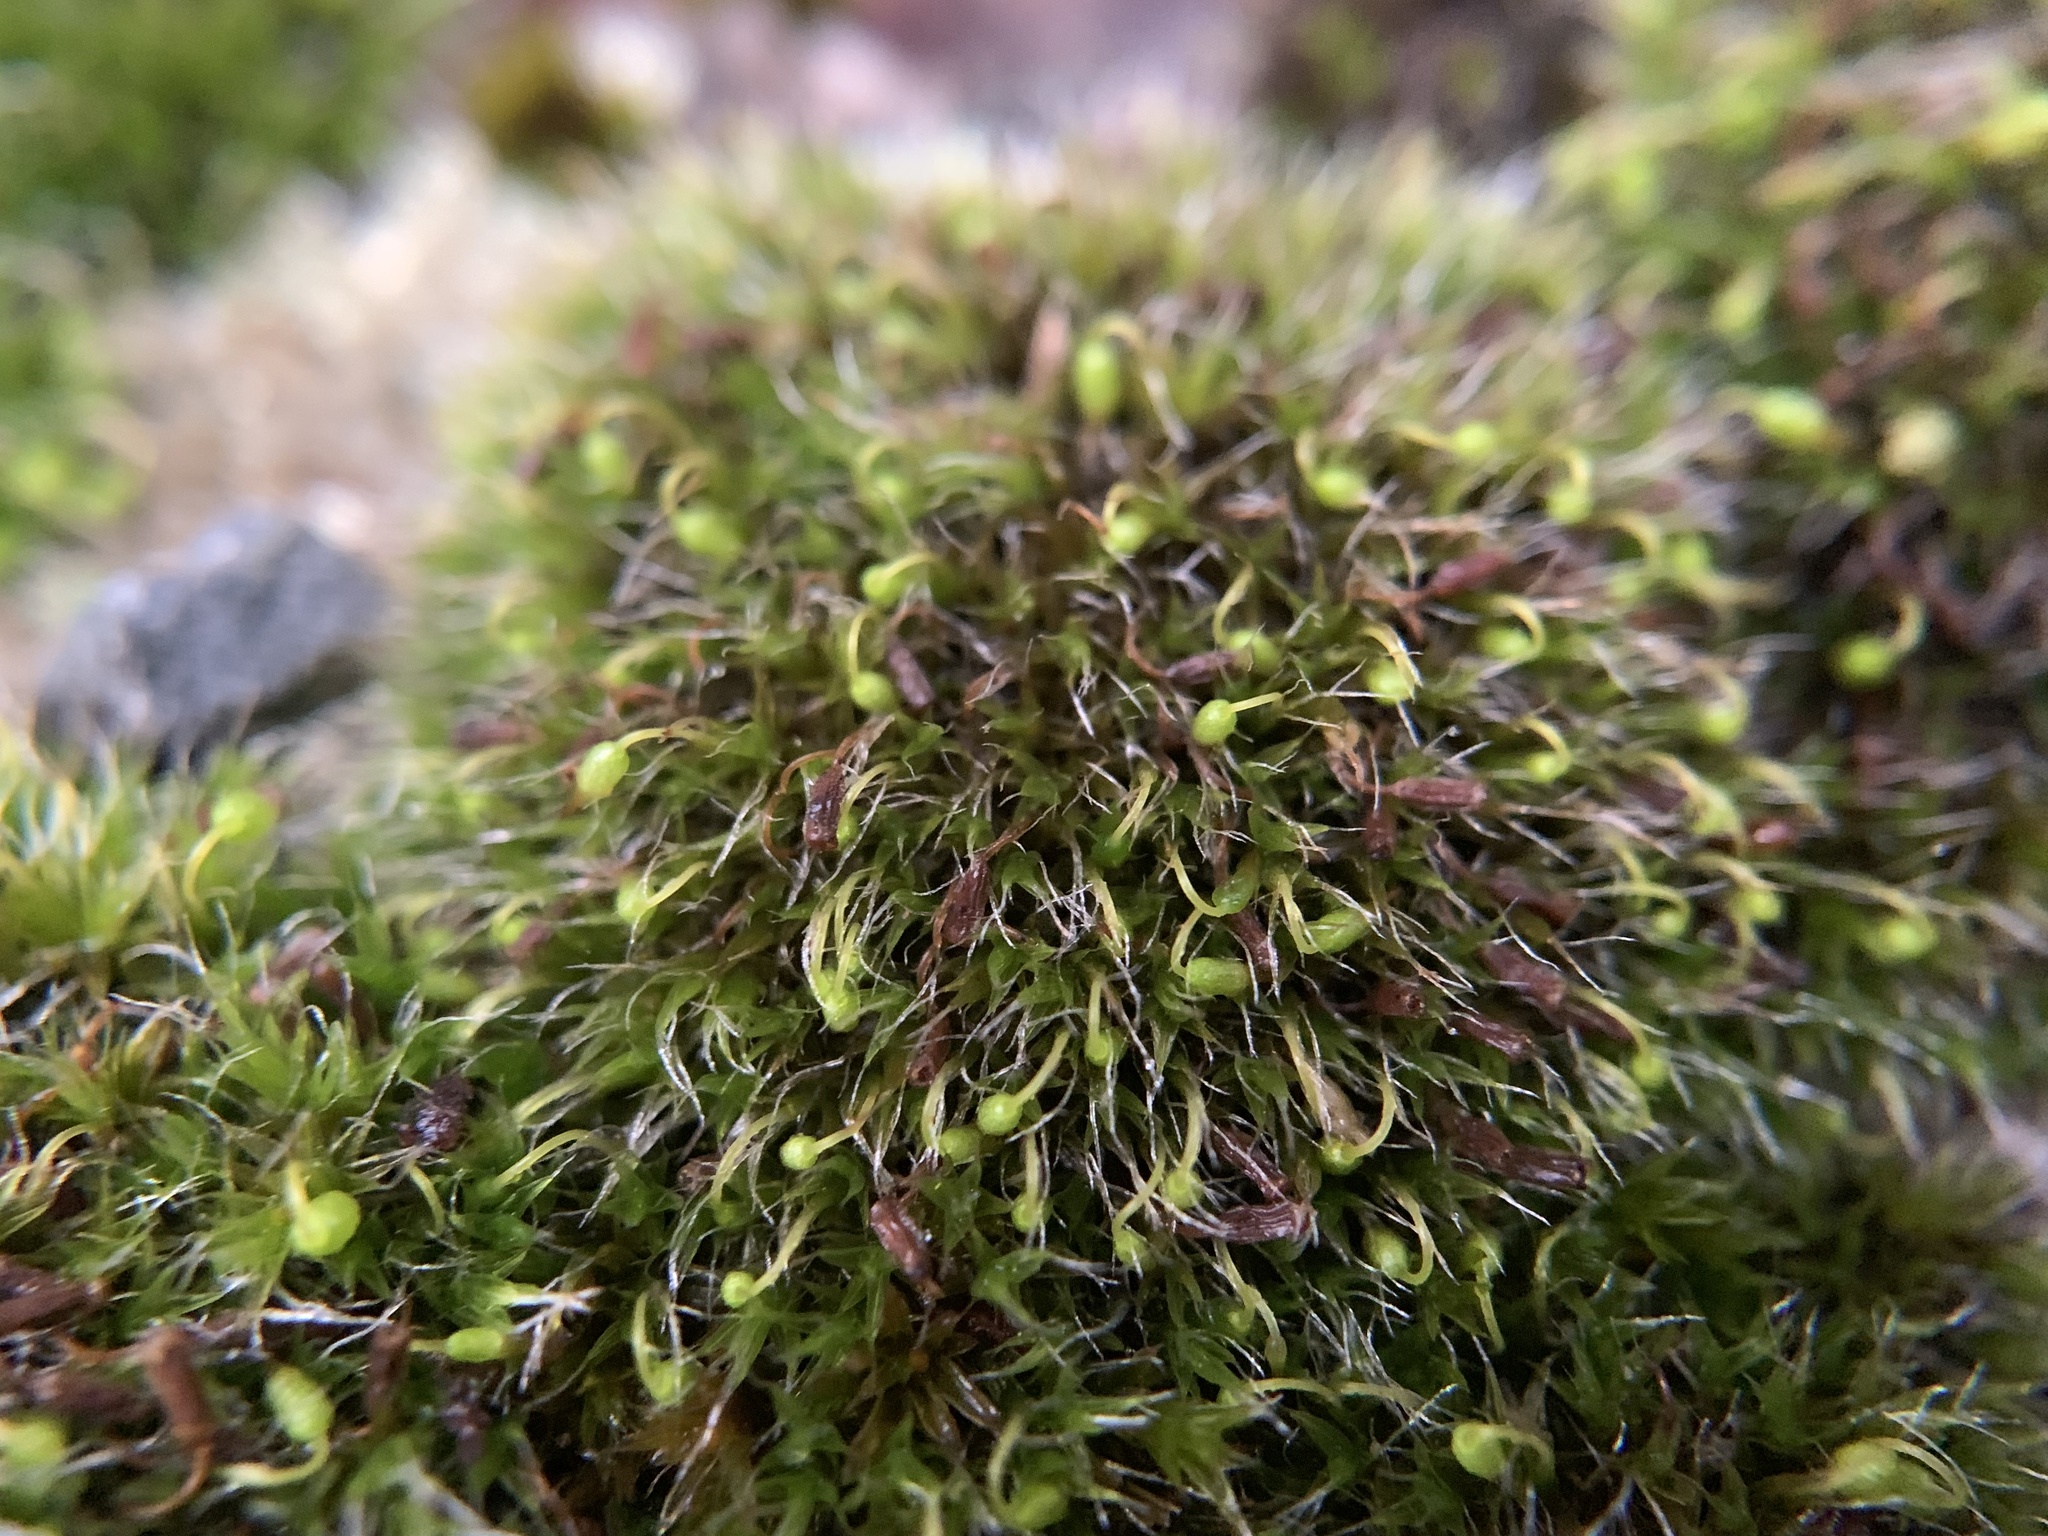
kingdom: Plantae
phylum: Bryophyta
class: Bryopsida
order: Grimmiales
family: Grimmiaceae
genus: Grimmia
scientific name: Grimmia pulvinata
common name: Grey-cushioned grimmia
